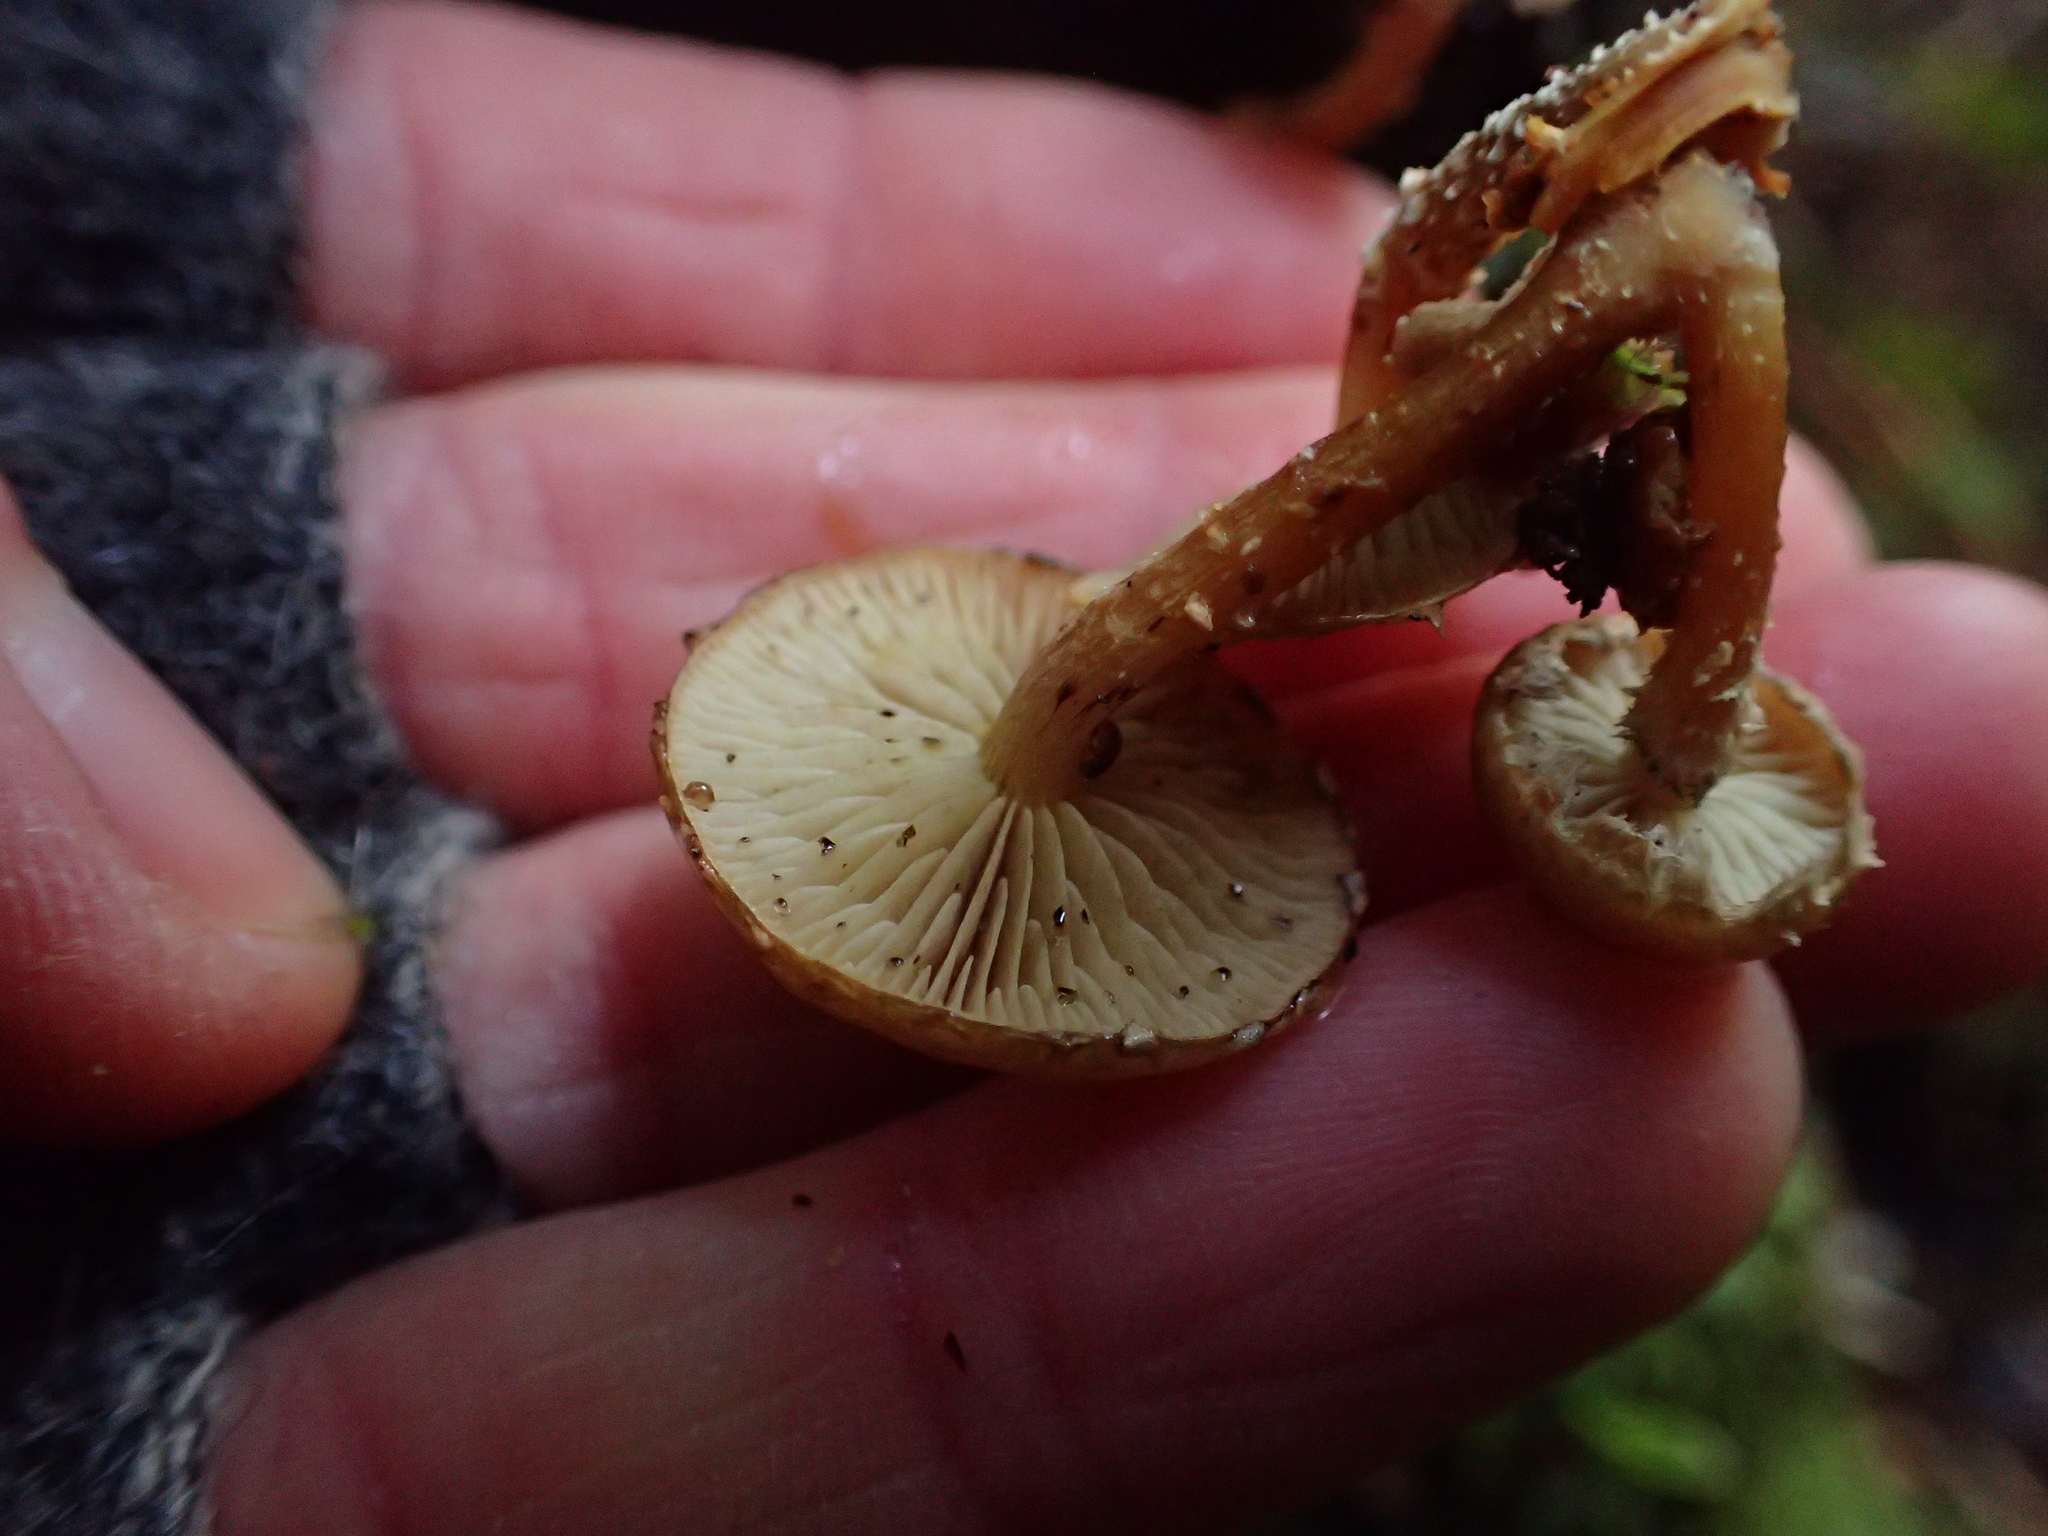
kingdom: Fungi
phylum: Basidiomycota
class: Agaricomycetes
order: Agaricales
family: Strophariaceae
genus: Pholiota
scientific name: Pholiota subflammans
